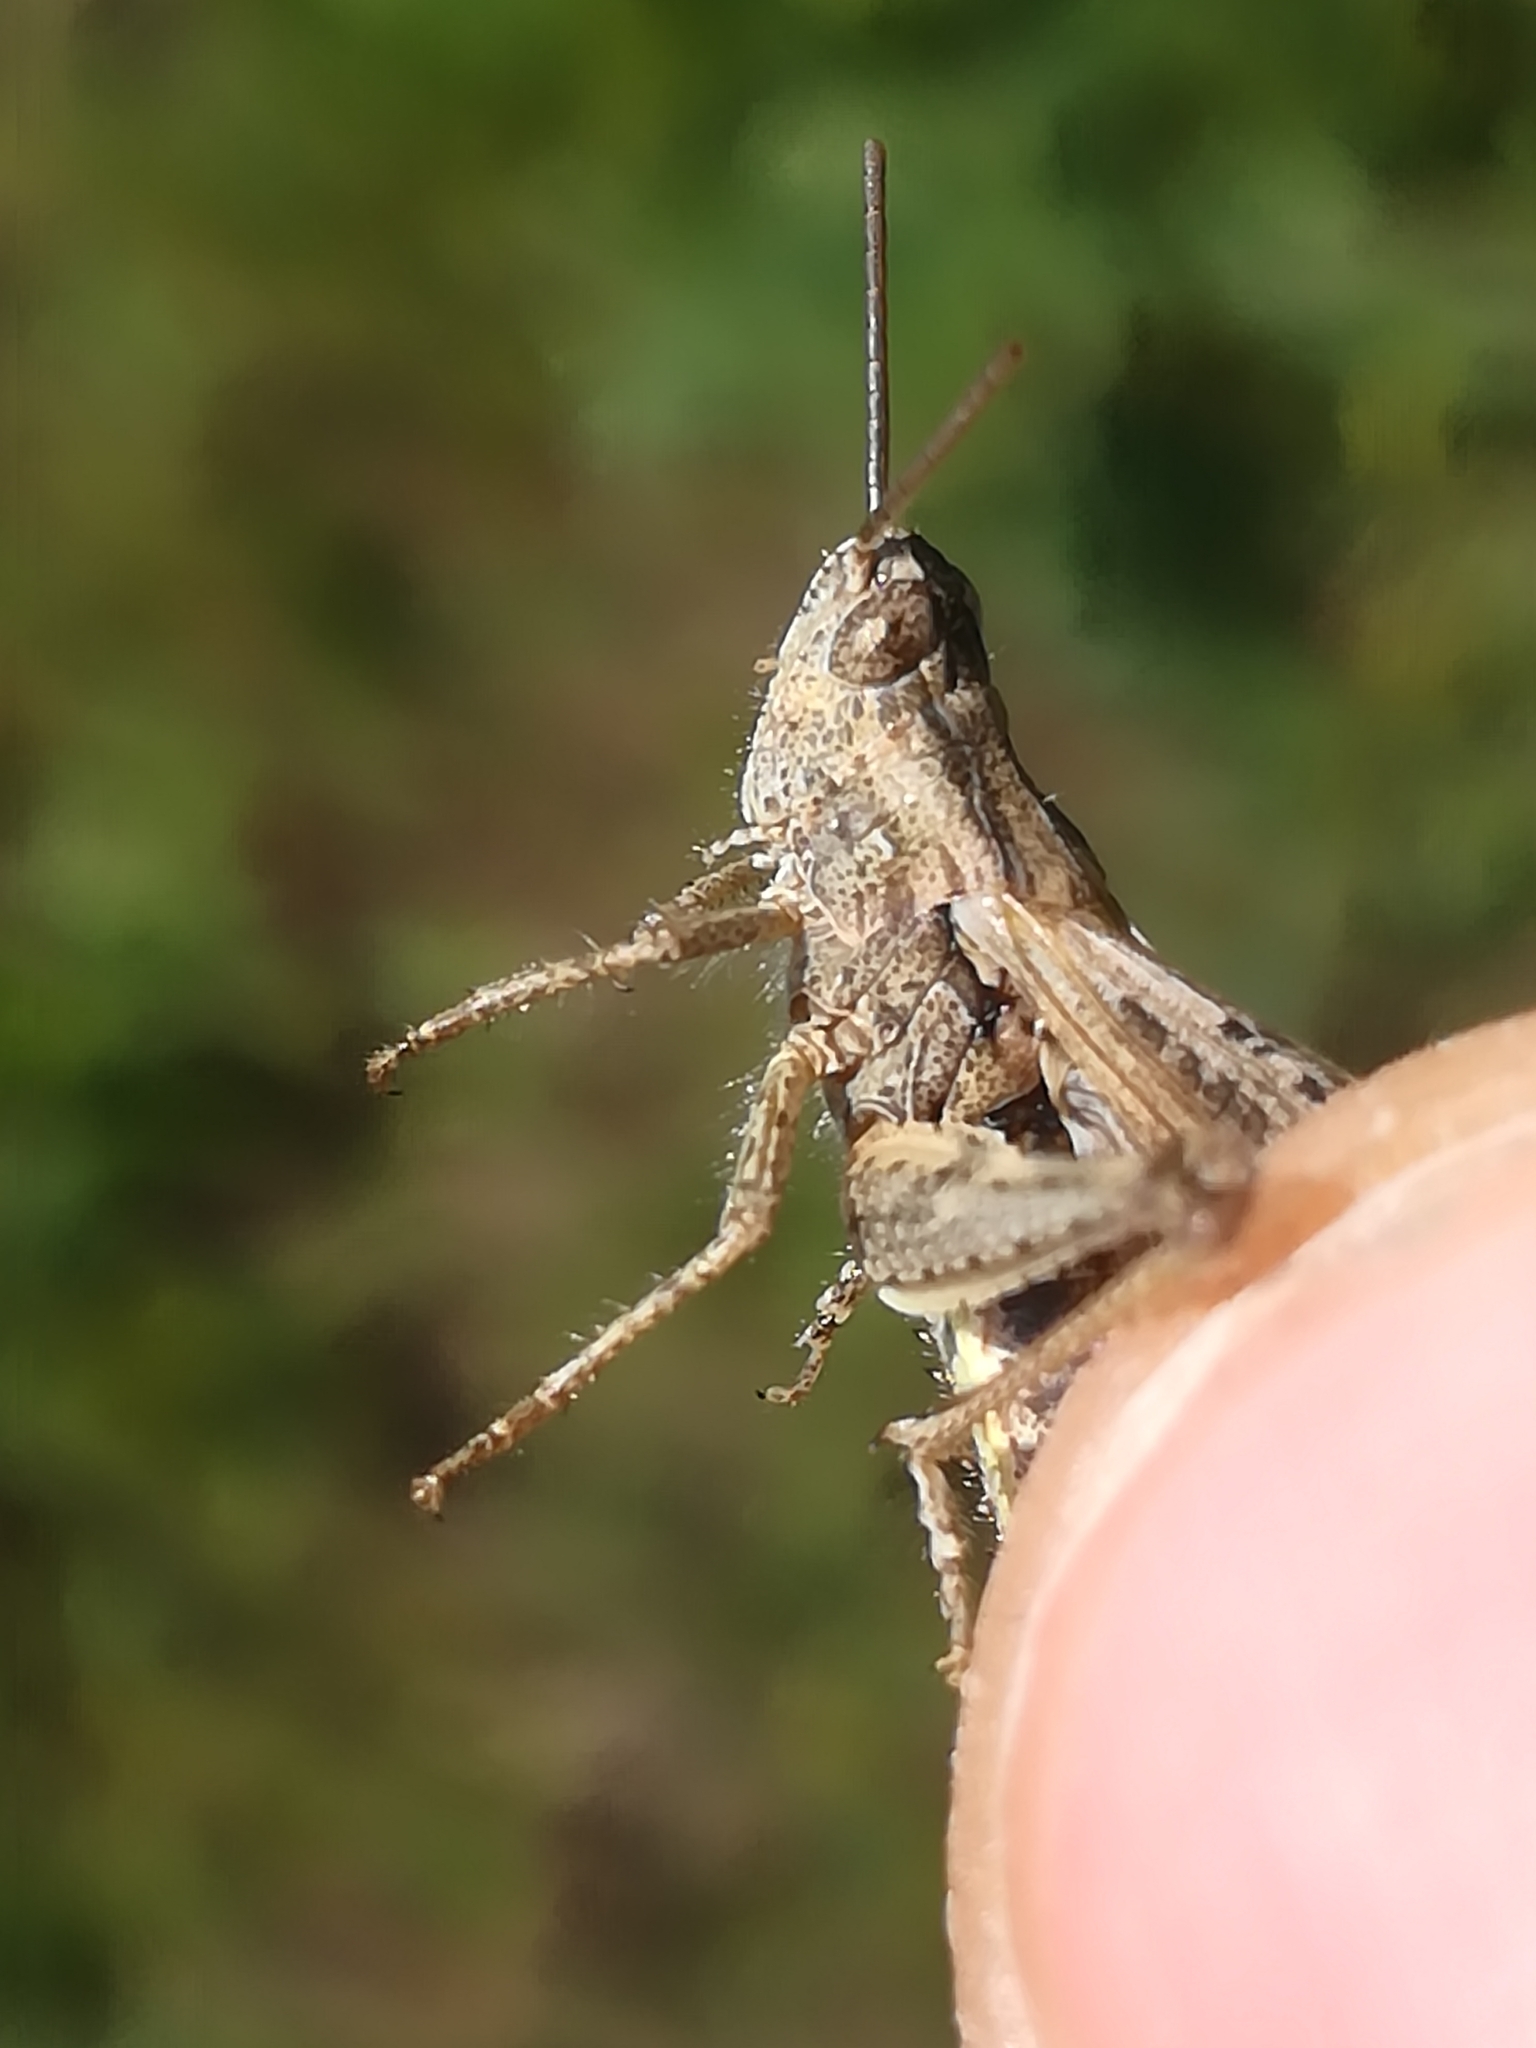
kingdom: Animalia
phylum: Arthropoda
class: Insecta
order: Orthoptera
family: Acrididae
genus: Chorthippus
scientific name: Chorthippus brunneus
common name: Field grasshopper
